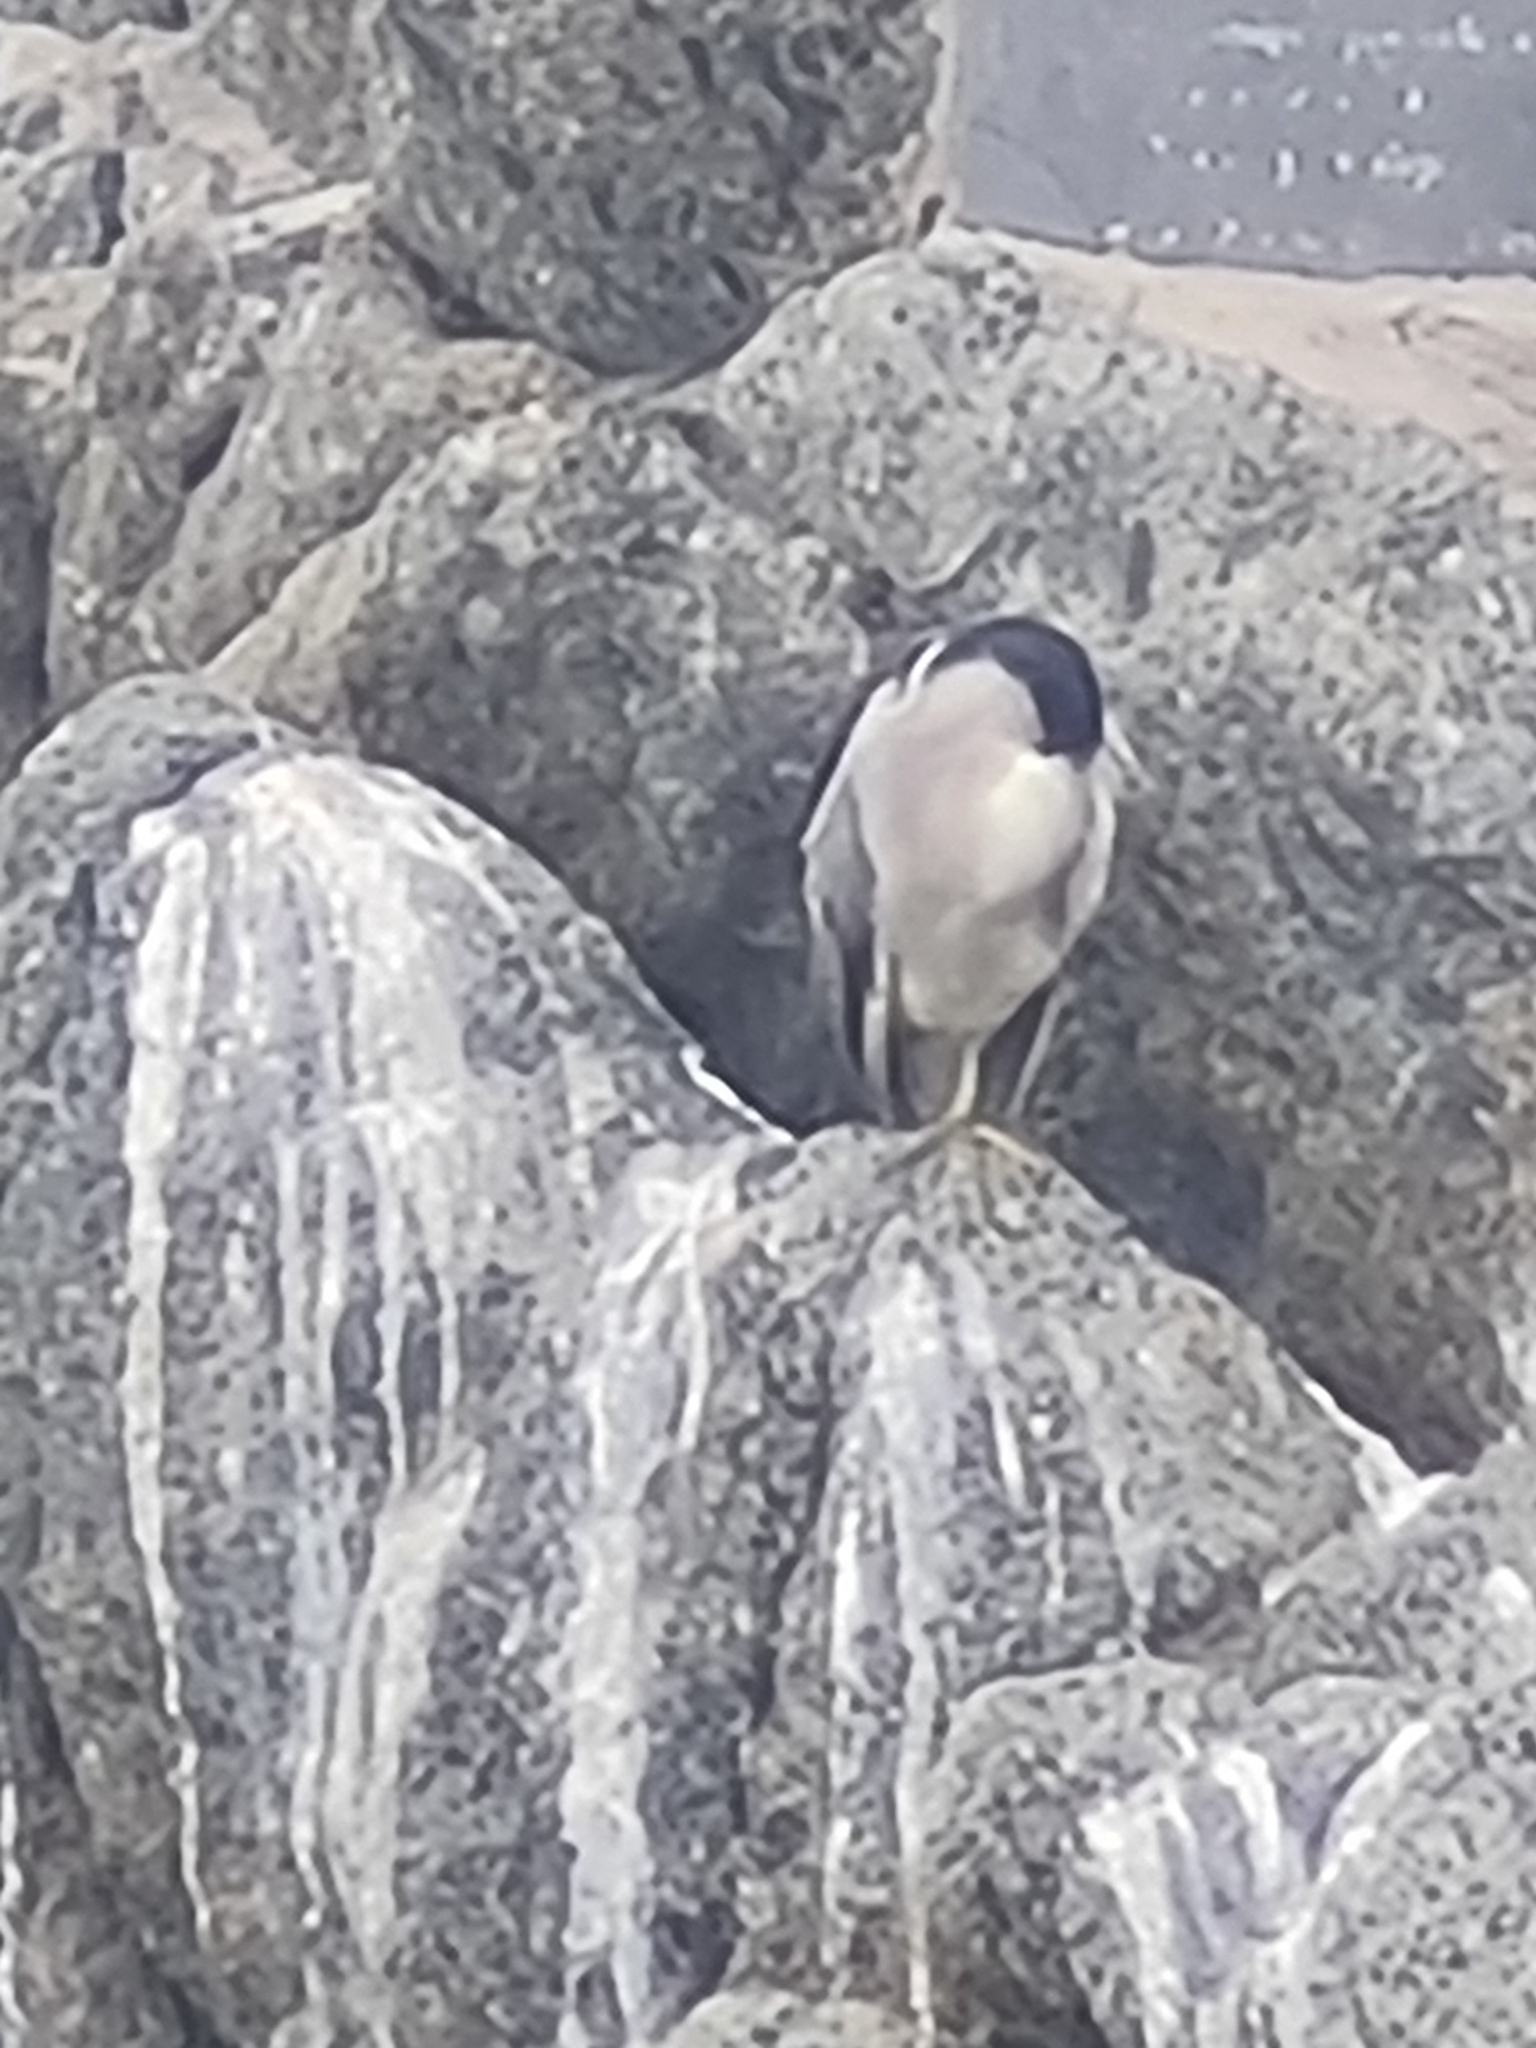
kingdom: Animalia
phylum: Chordata
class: Aves
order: Pelecaniformes
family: Ardeidae
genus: Nycticorax
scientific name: Nycticorax nycticorax
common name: Black-crowned night heron
